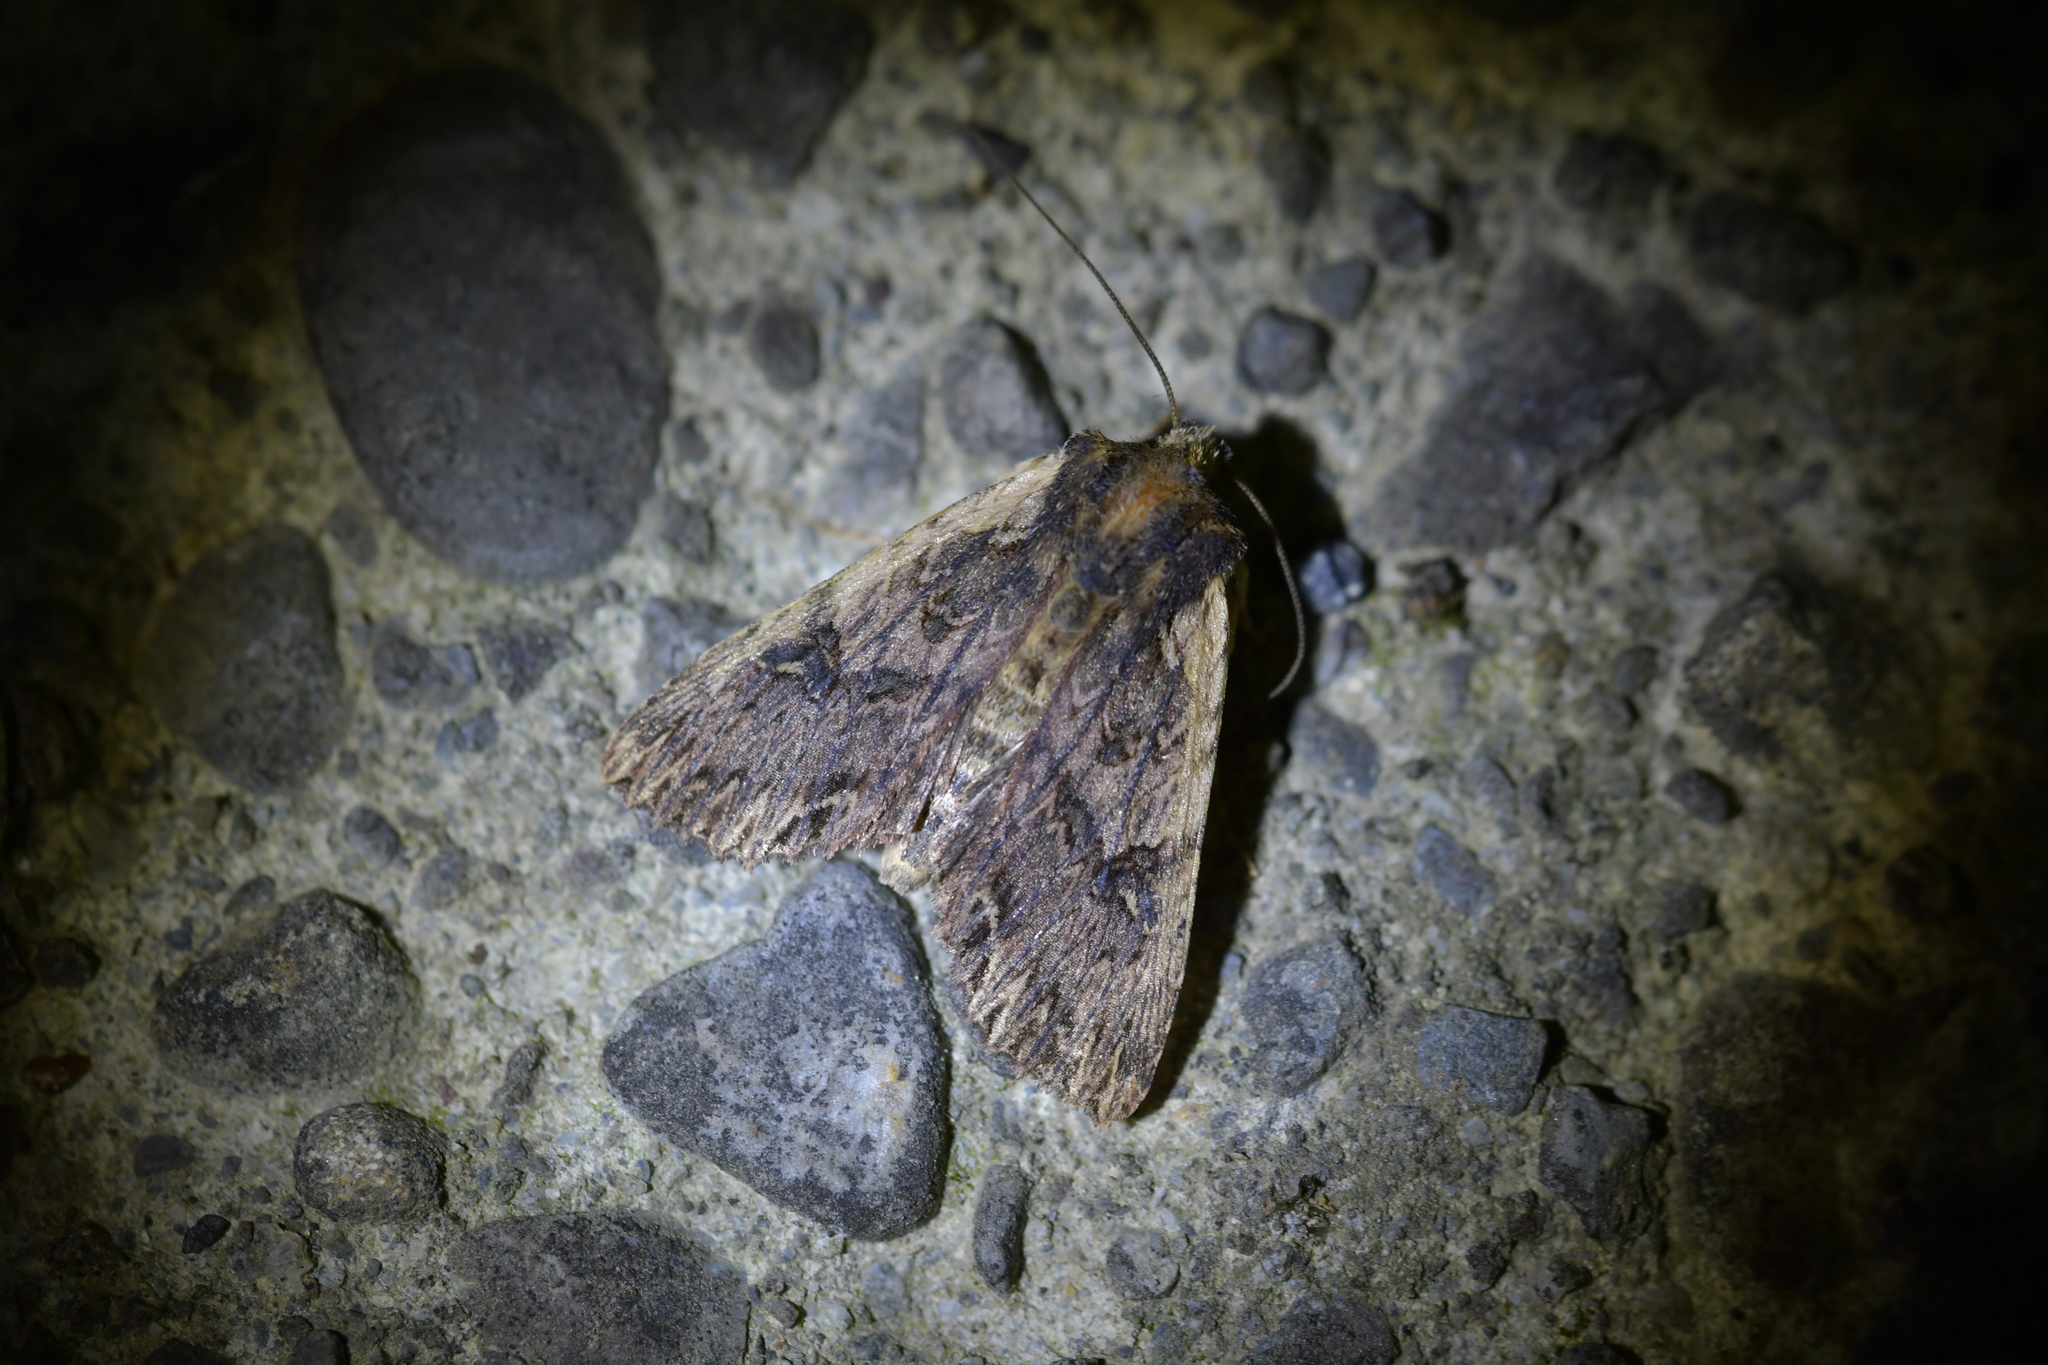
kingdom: Animalia
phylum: Arthropoda
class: Insecta
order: Lepidoptera
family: Noctuidae
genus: Meterana
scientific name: Meterana alcyone
